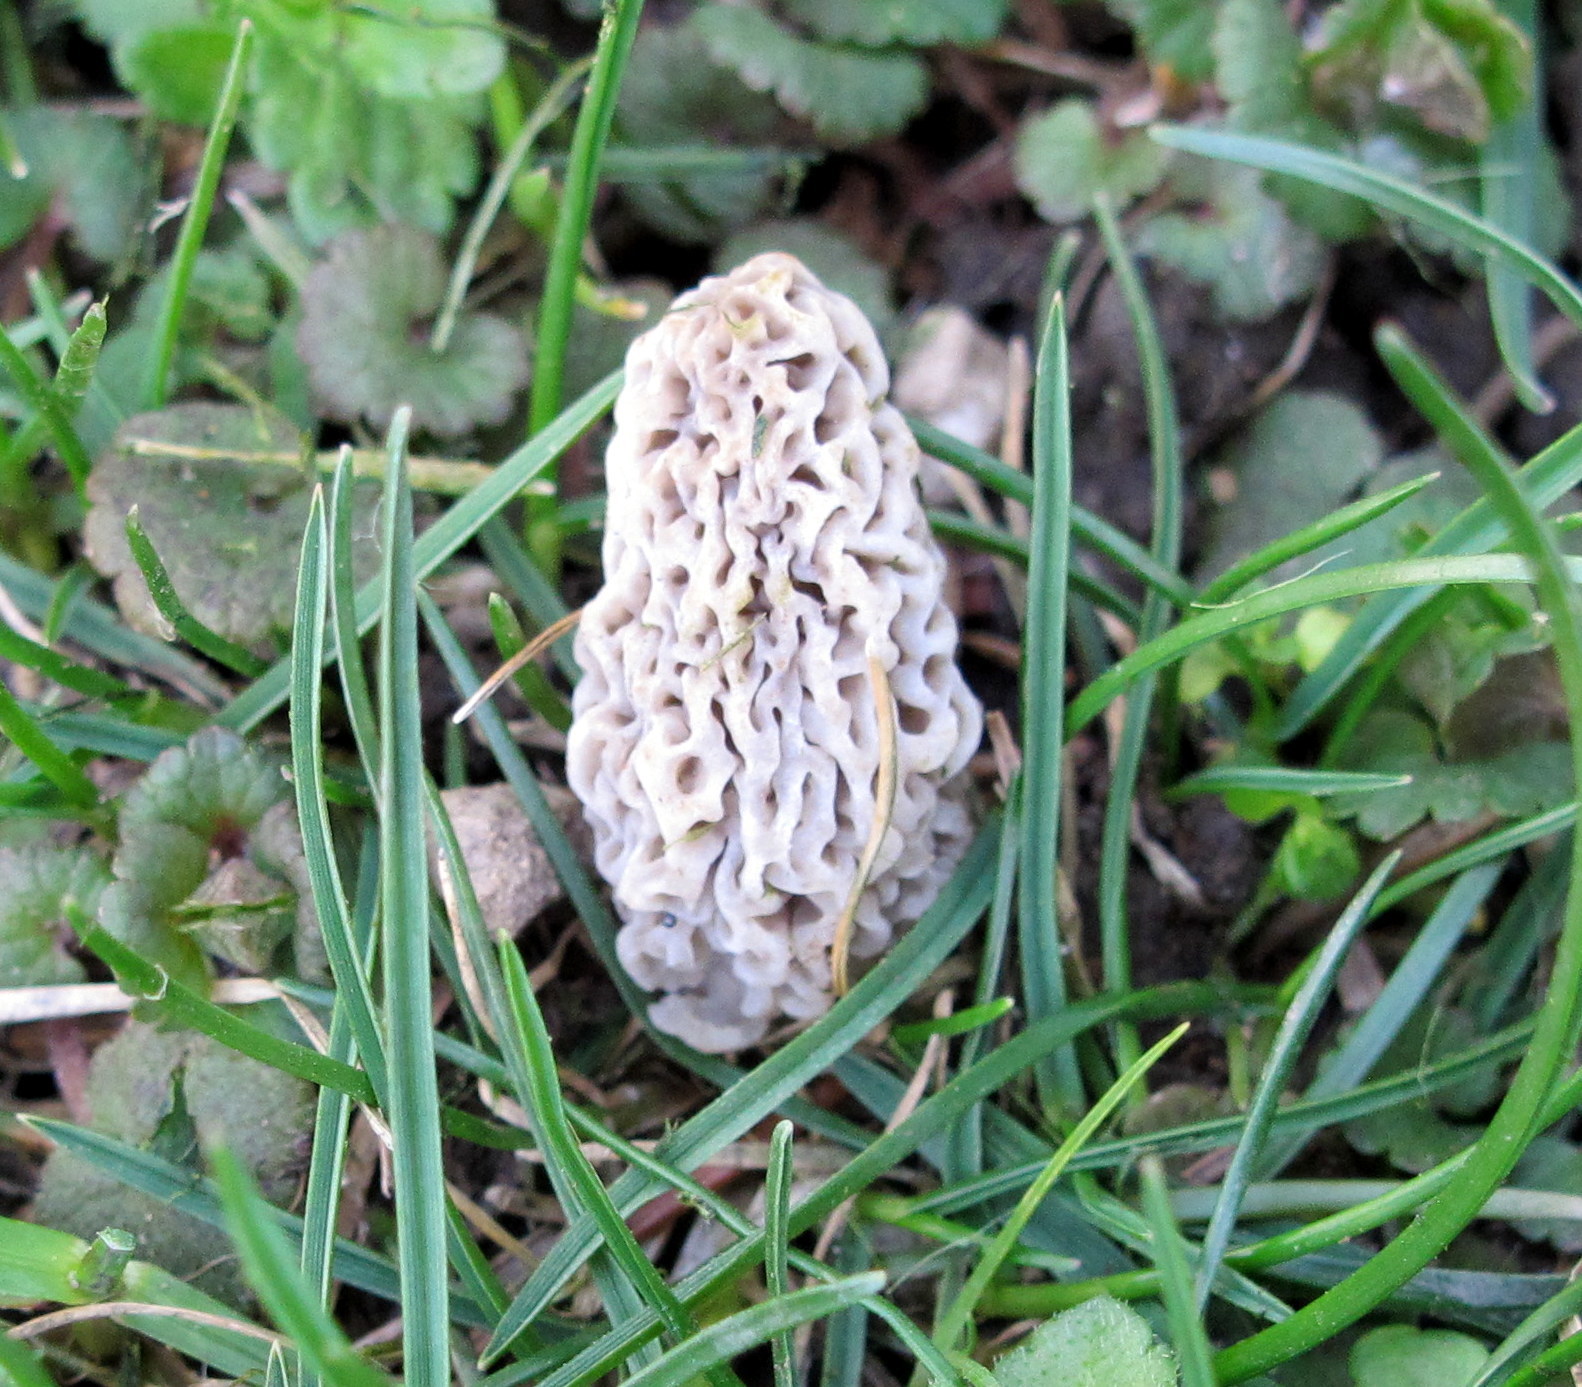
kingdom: Fungi
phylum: Ascomycota
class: Pezizomycetes
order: Pezizales
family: Morchellaceae
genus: Morchella
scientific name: Morchella americana
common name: White morel
